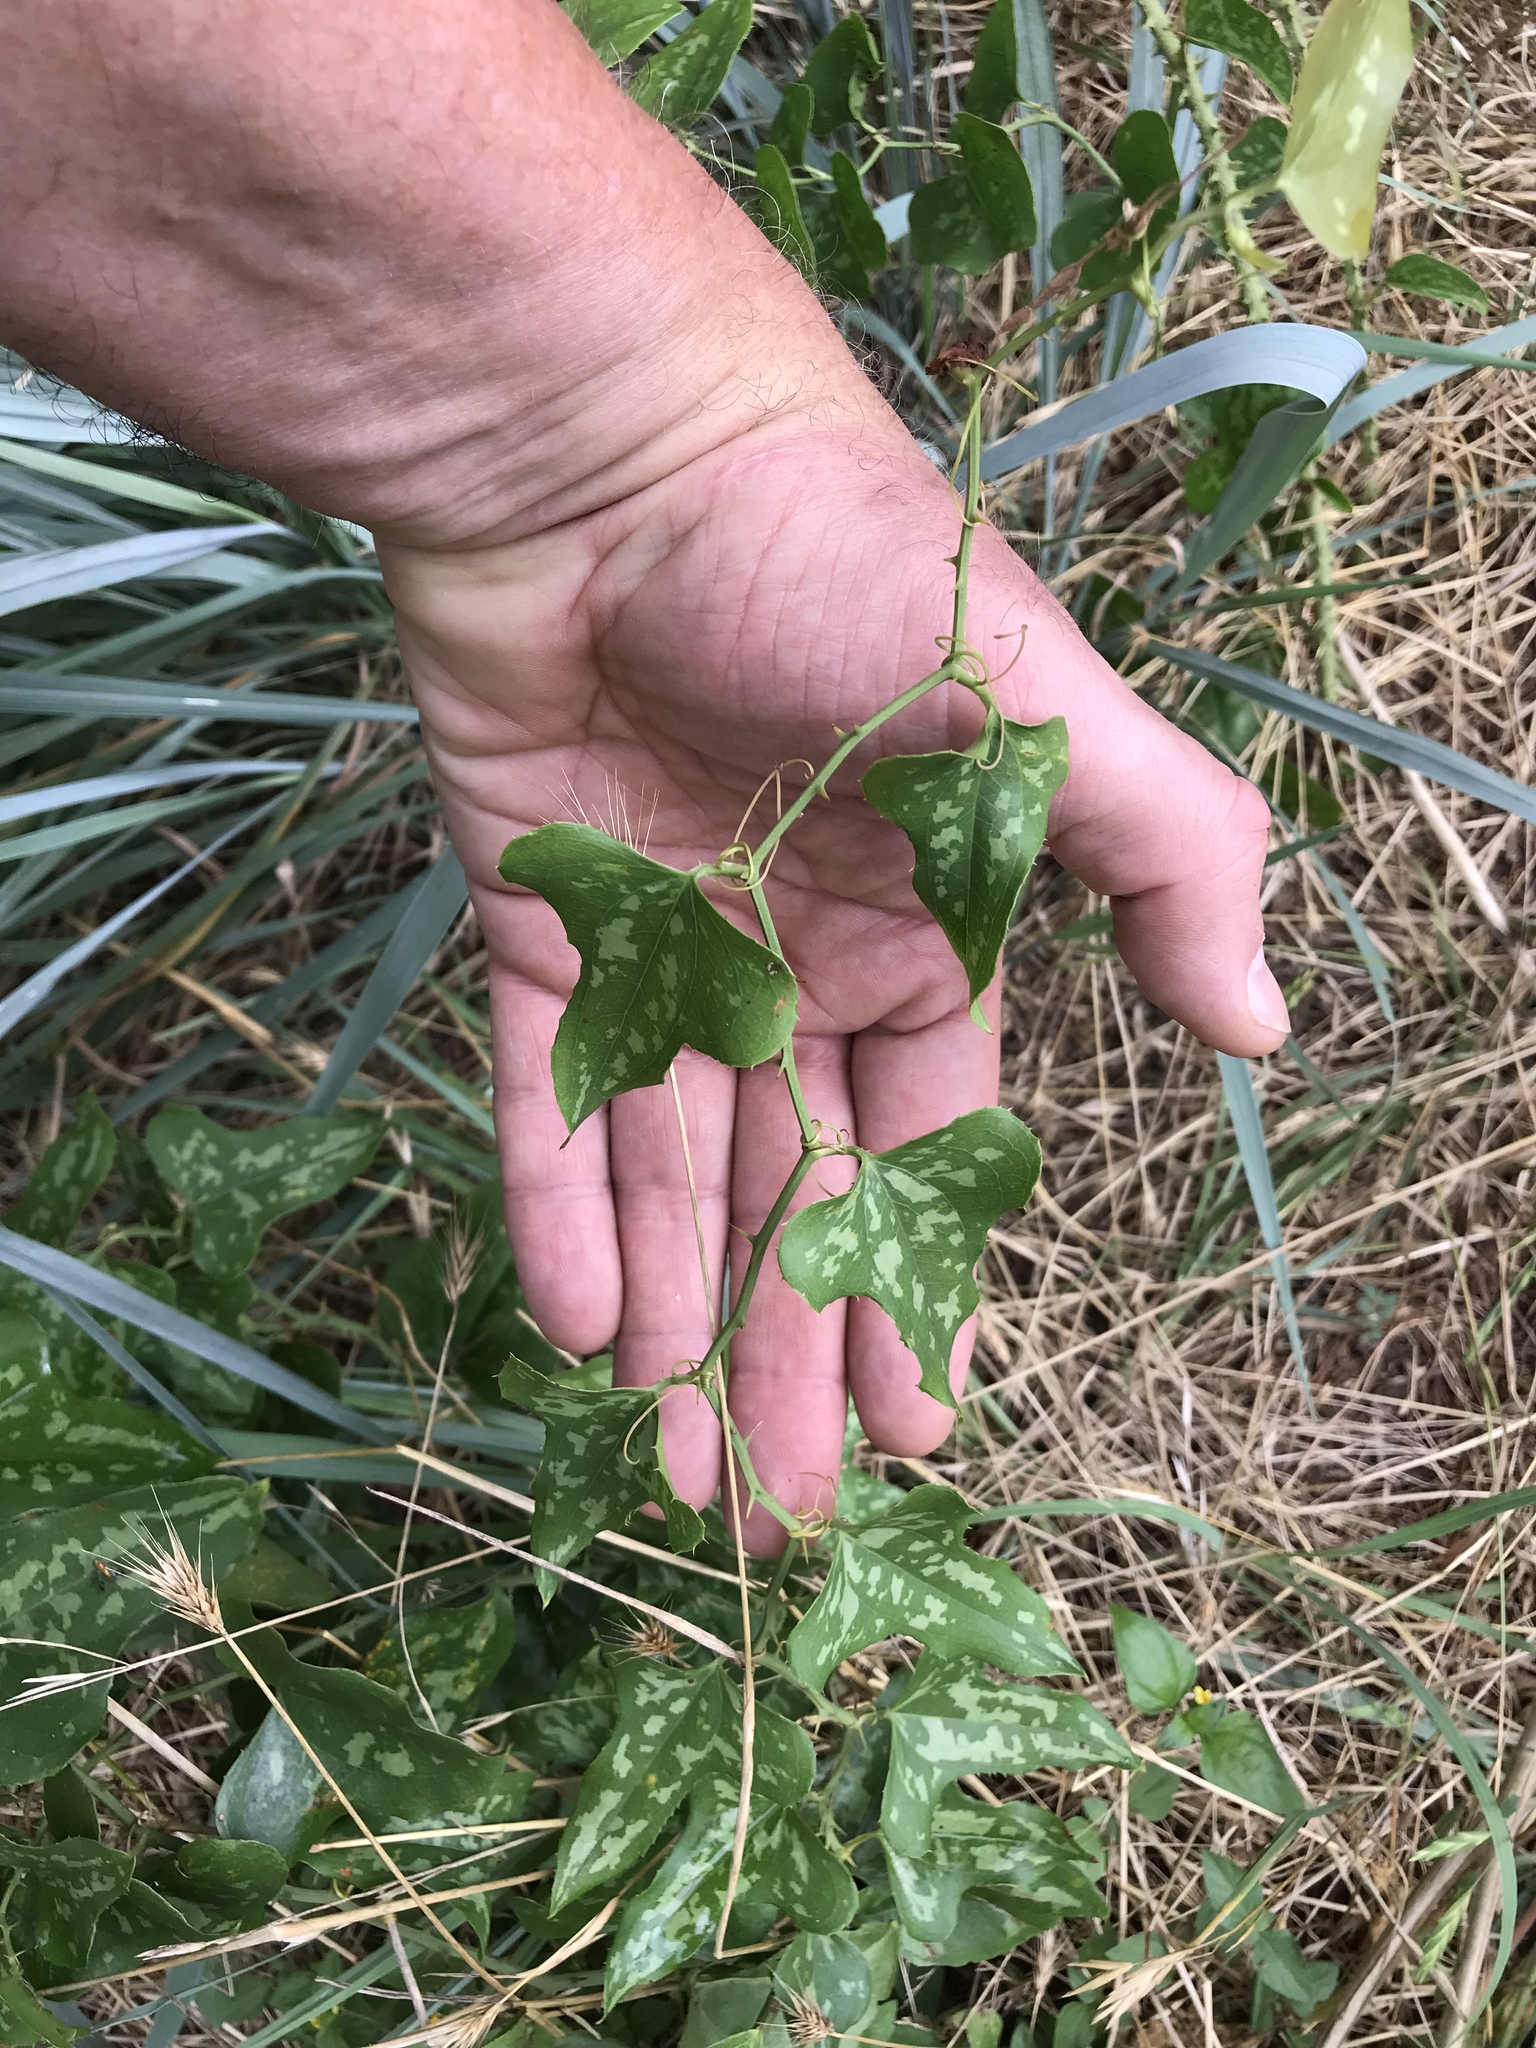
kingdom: Plantae
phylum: Tracheophyta
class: Liliopsida
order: Liliales
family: Smilacaceae
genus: Smilax
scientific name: Smilax bona-nox
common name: Catbrier
